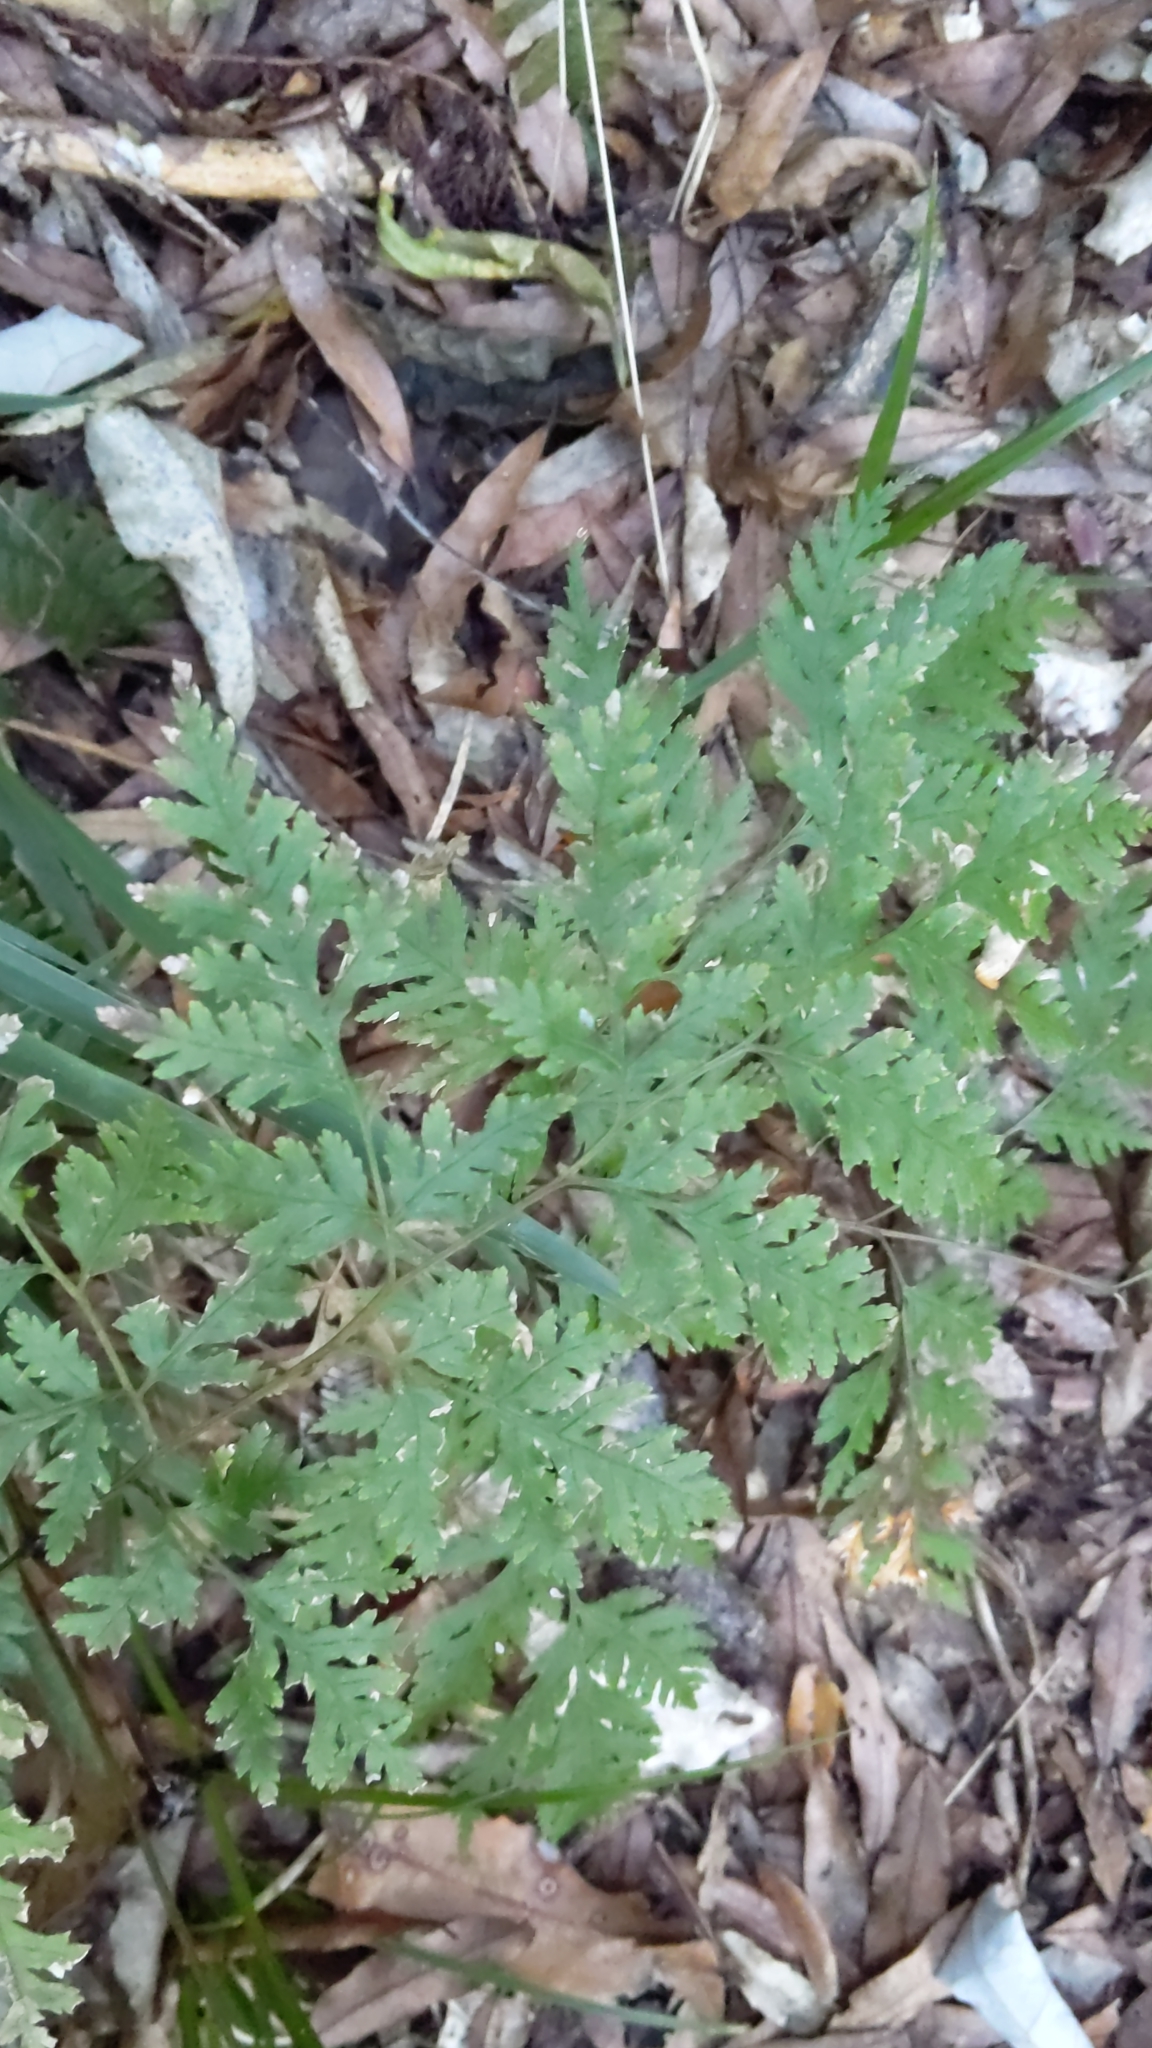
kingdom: Plantae
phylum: Tracheophyta
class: Polypodiopsida
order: Polypodiales
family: Pteridaceae
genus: Pteris
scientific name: Pteris macilenta
